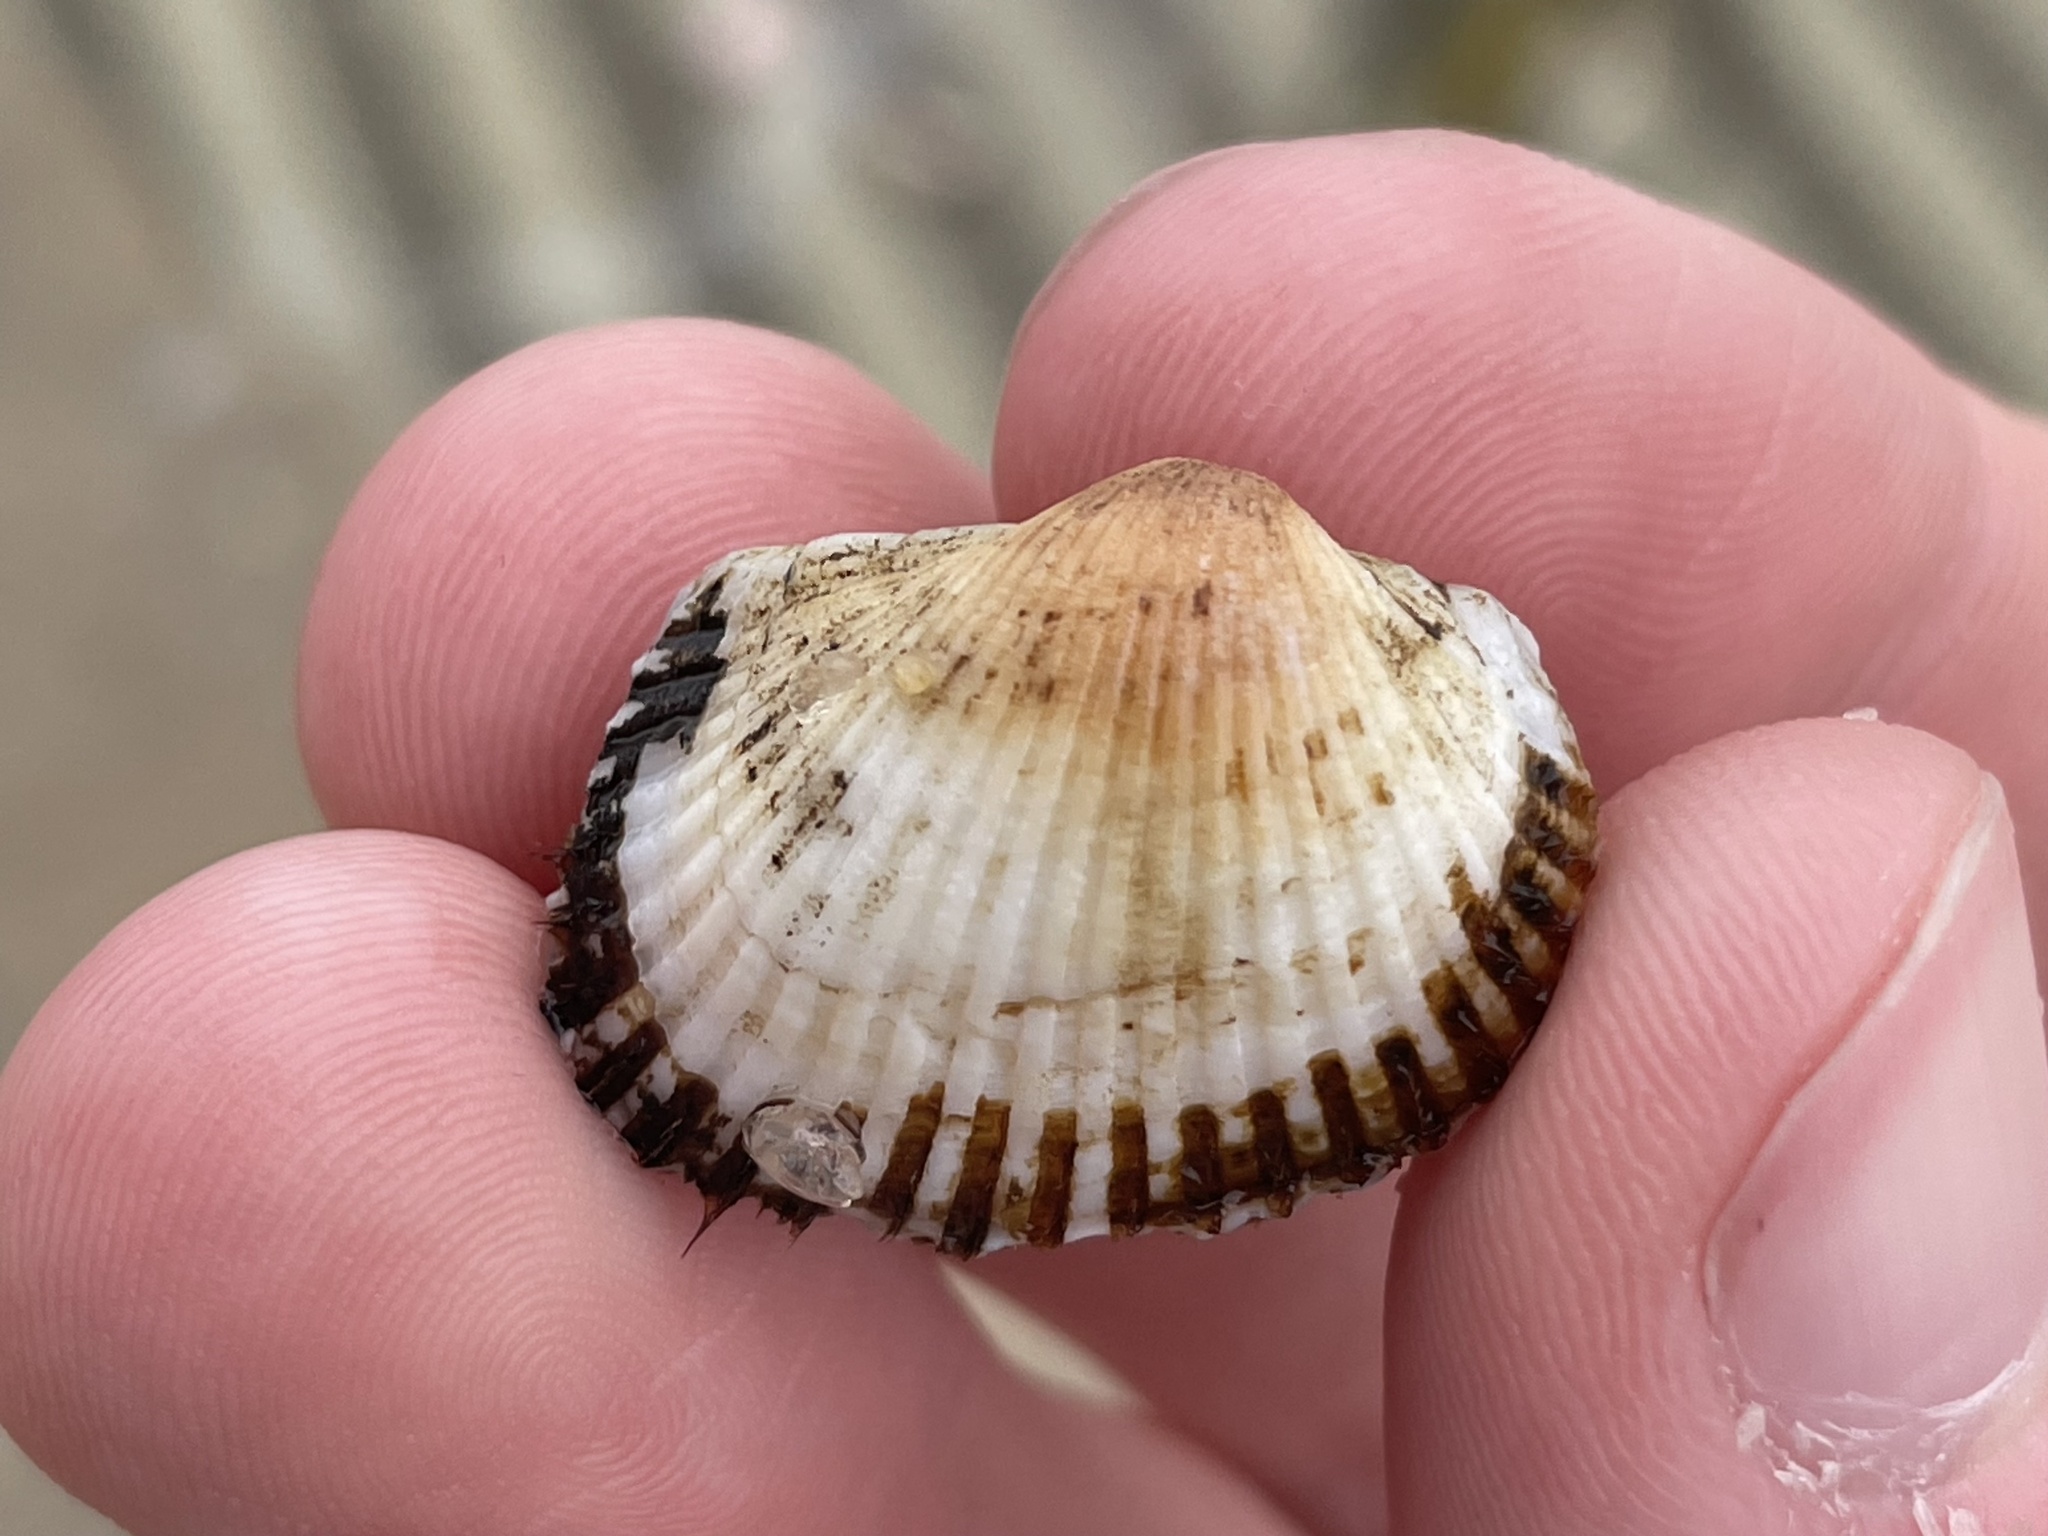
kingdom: Animalia
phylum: Mollusca
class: Bivalvia
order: Arcida
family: Arcidae
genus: Anadara
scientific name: Anadara transversa
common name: Transverse ark
